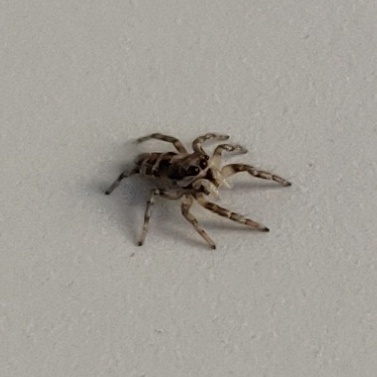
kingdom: Animalia
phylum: Arthropoda
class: Arachnida
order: Araneae
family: Salticidae
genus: Salticus
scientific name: Salticus scenicus
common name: Zebra jumper
